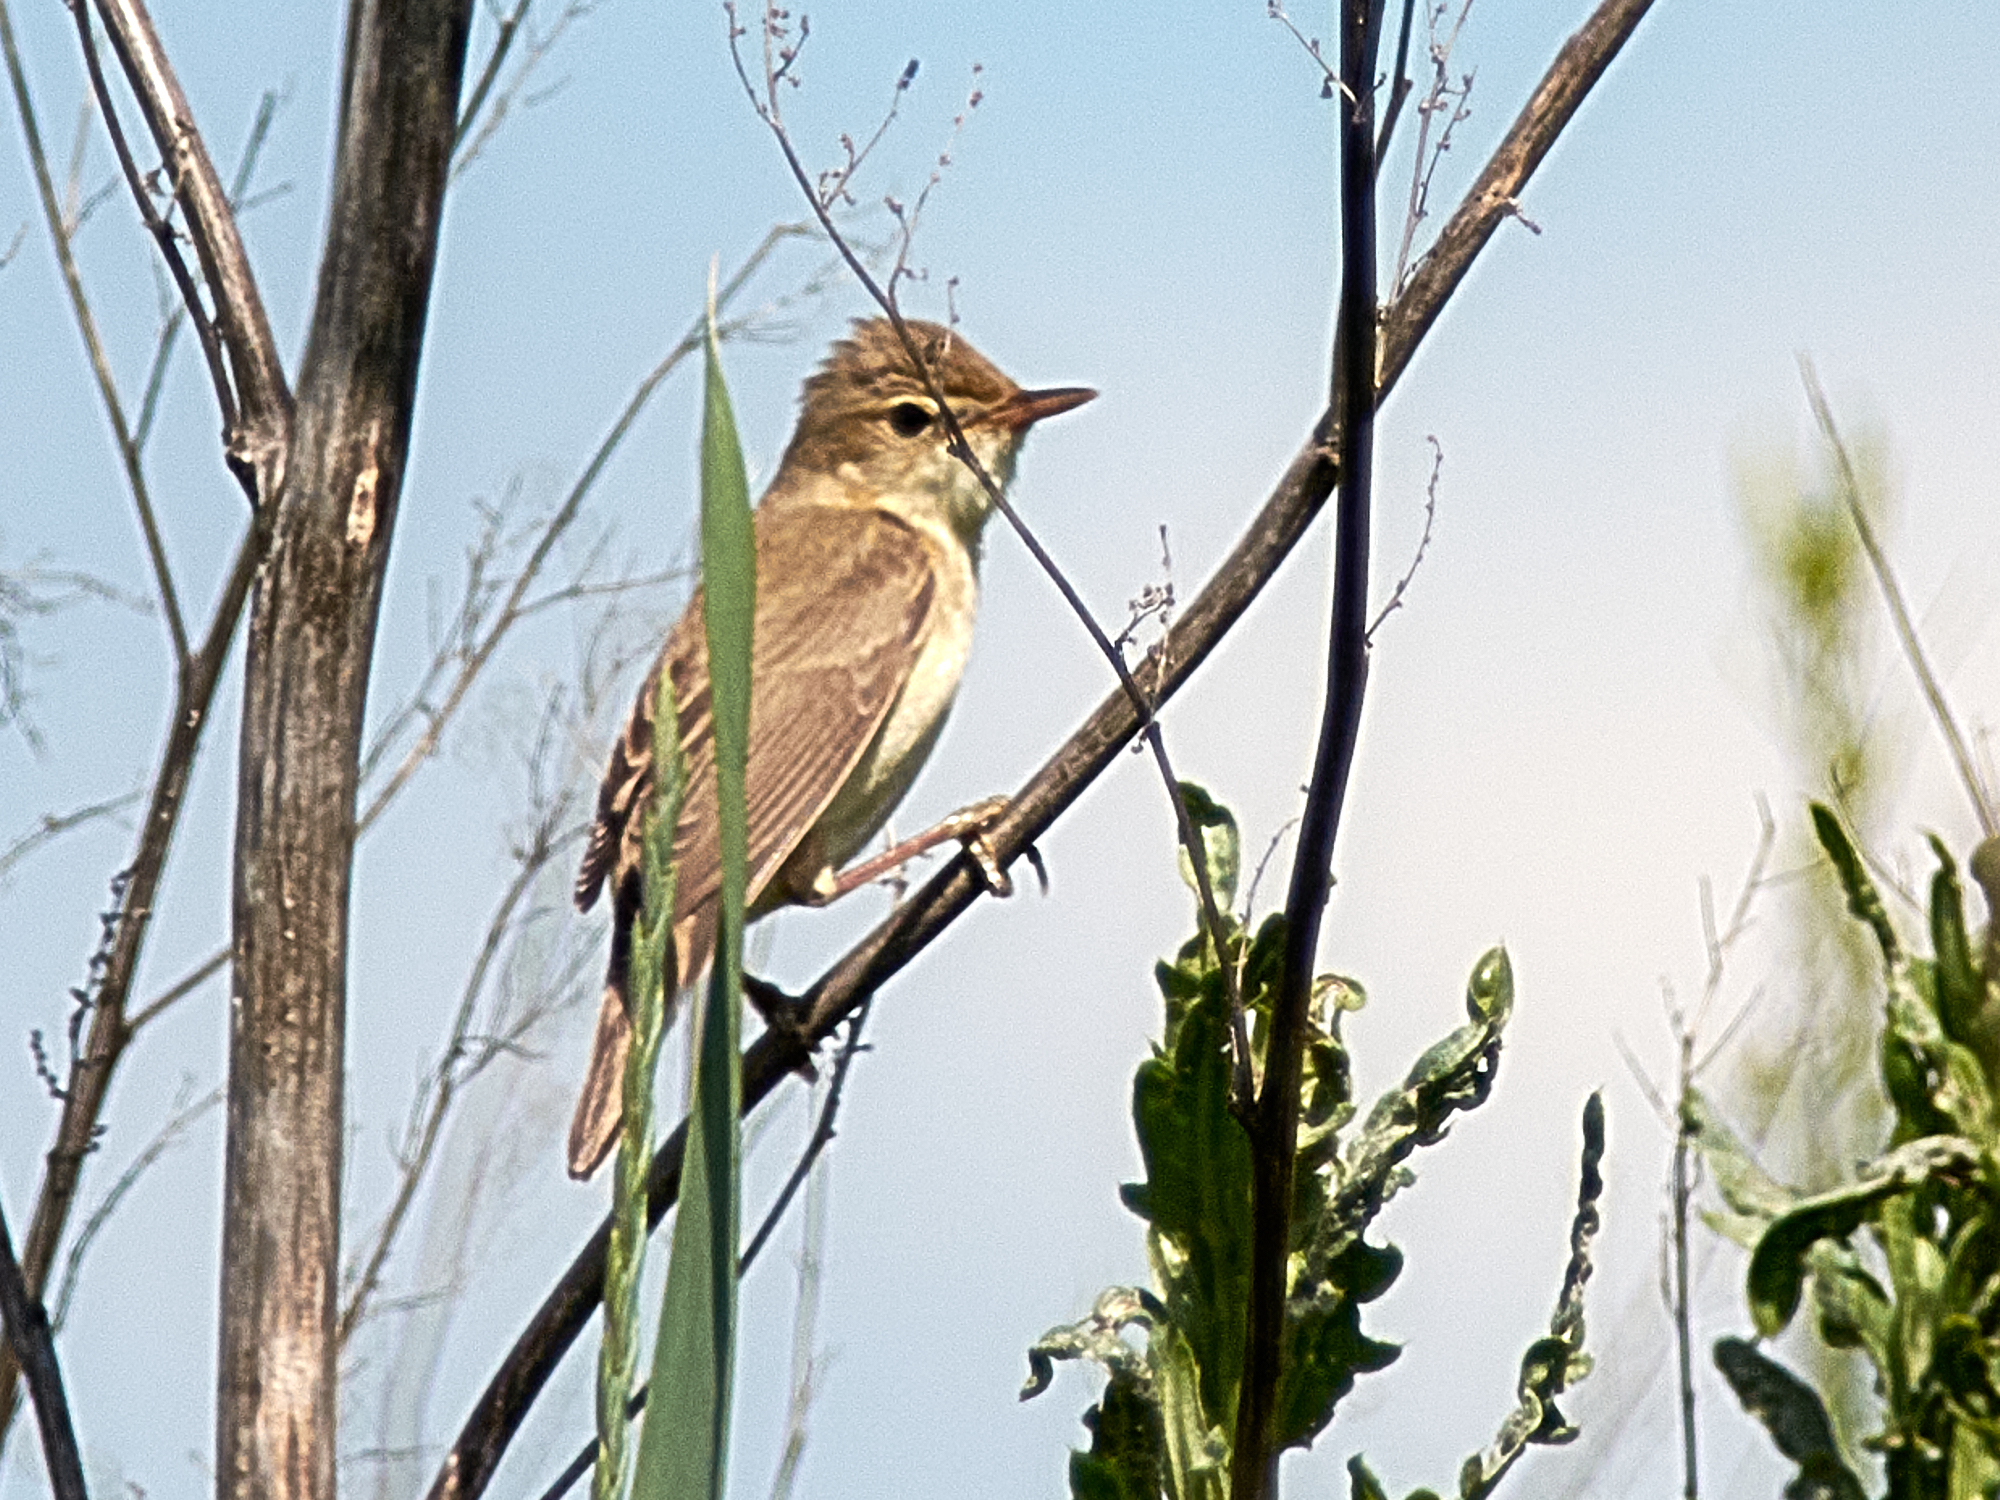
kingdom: Animalia
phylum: Chordata
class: Aves
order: Passeriformes
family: Acrocephalidae
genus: Iduna
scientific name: Iduna caligata
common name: Booted warbler
